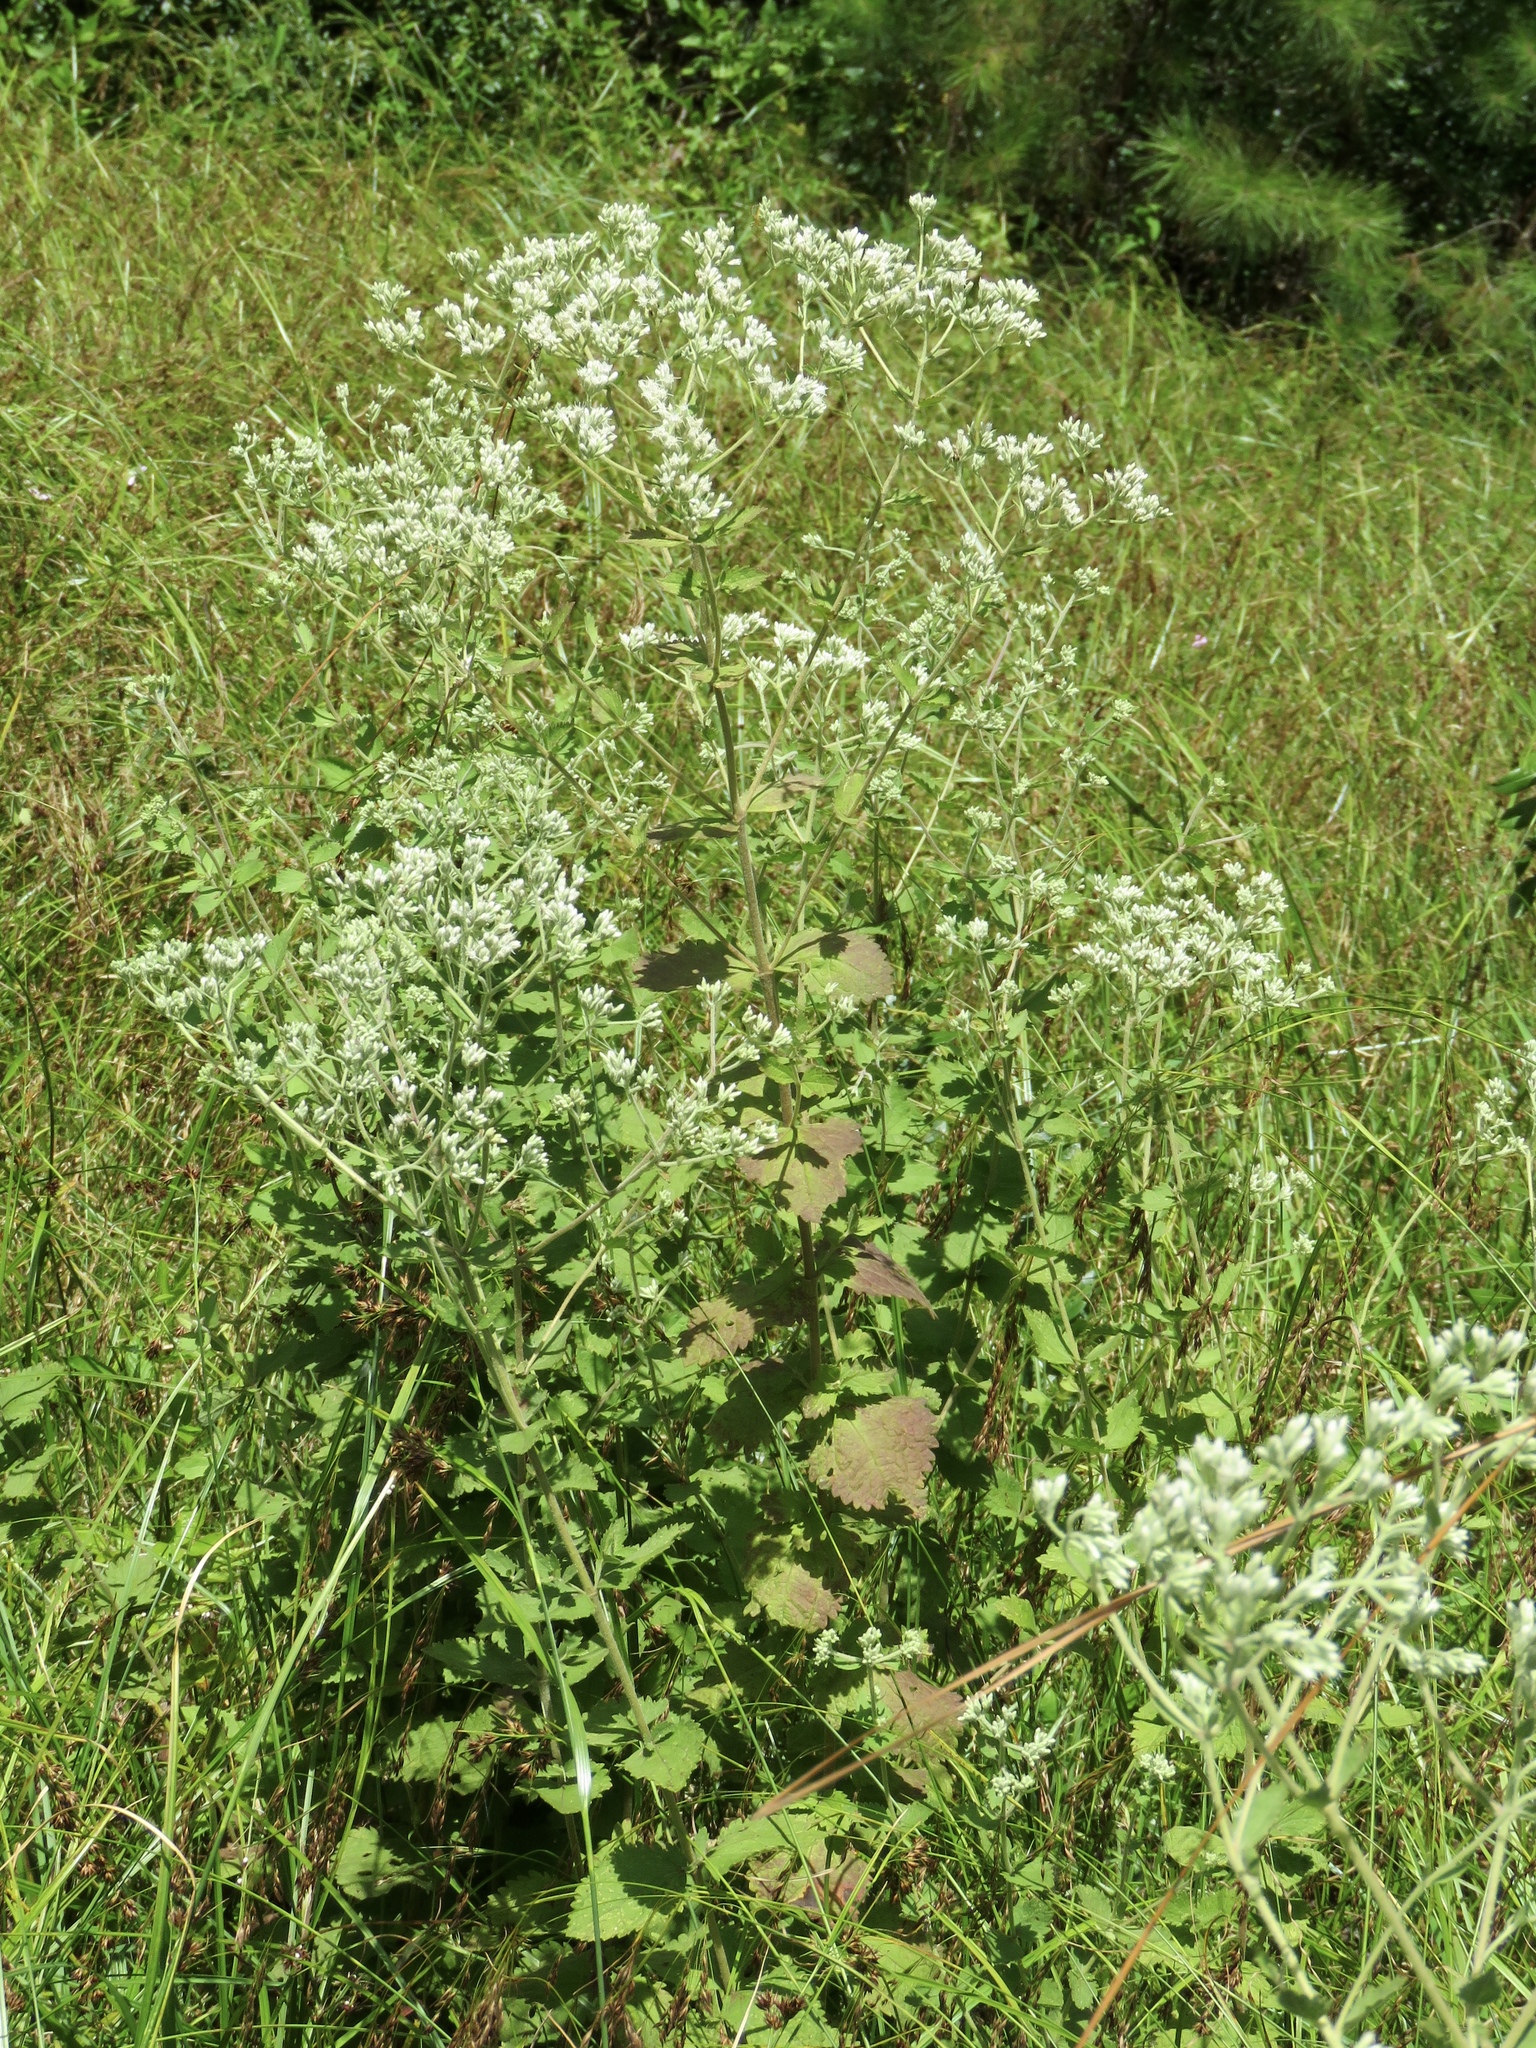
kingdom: Plantae
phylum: Tracheophyta
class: Magnoliopsida
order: Asterales
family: Asteraceae
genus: Eupatorium
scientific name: Eupatorium rotundifolium
